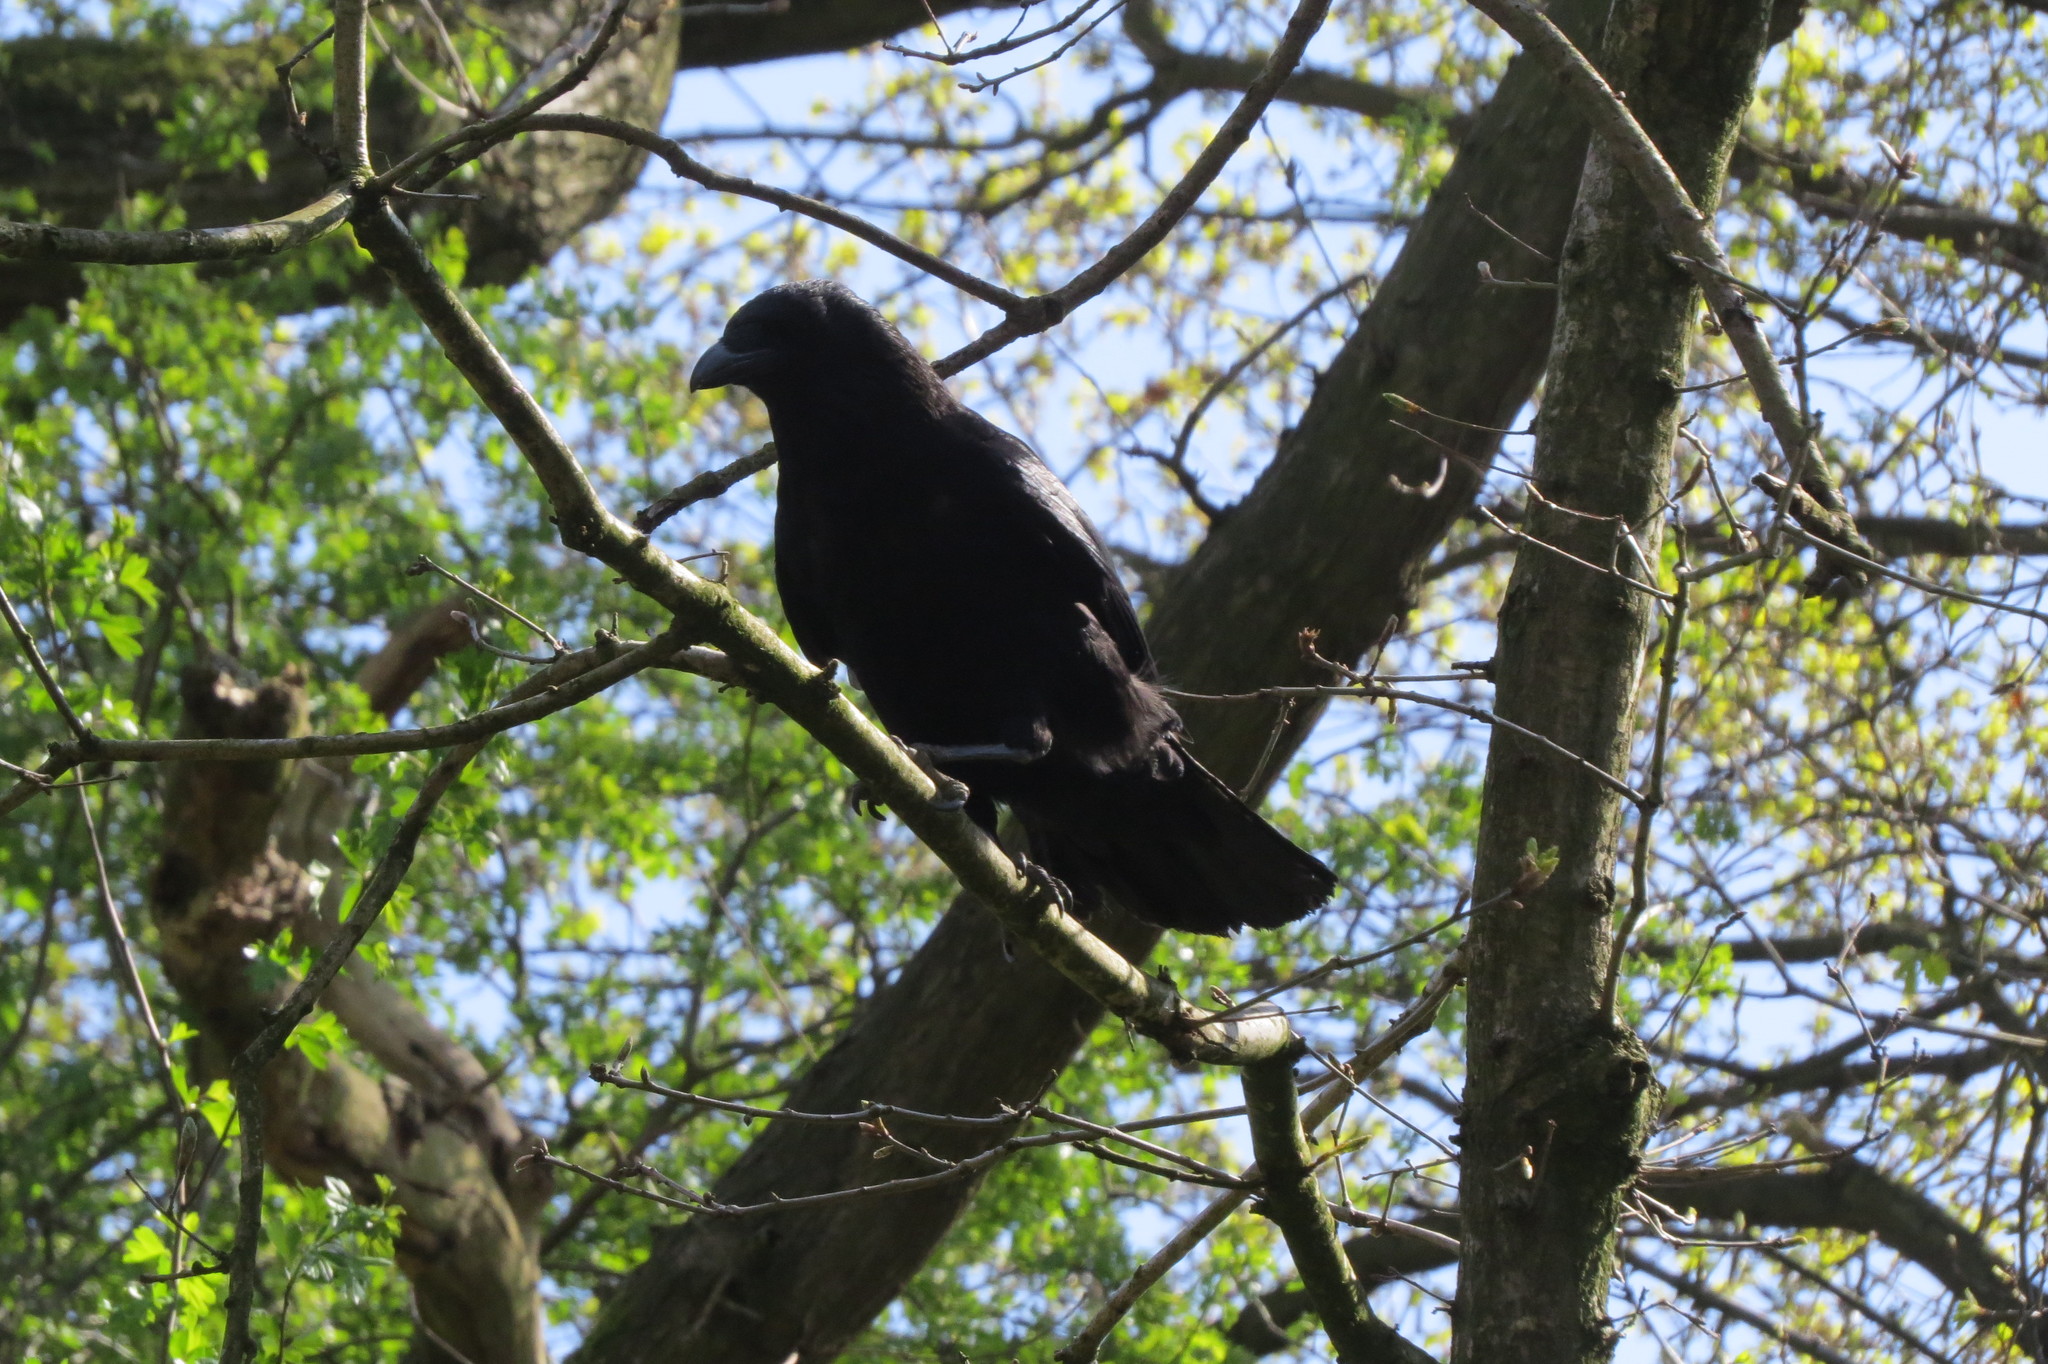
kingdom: Animalia
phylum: Chordata
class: Aves
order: Passeriformes
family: Corvidae
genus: Corvus
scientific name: Corvus corone
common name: Carrion crow
